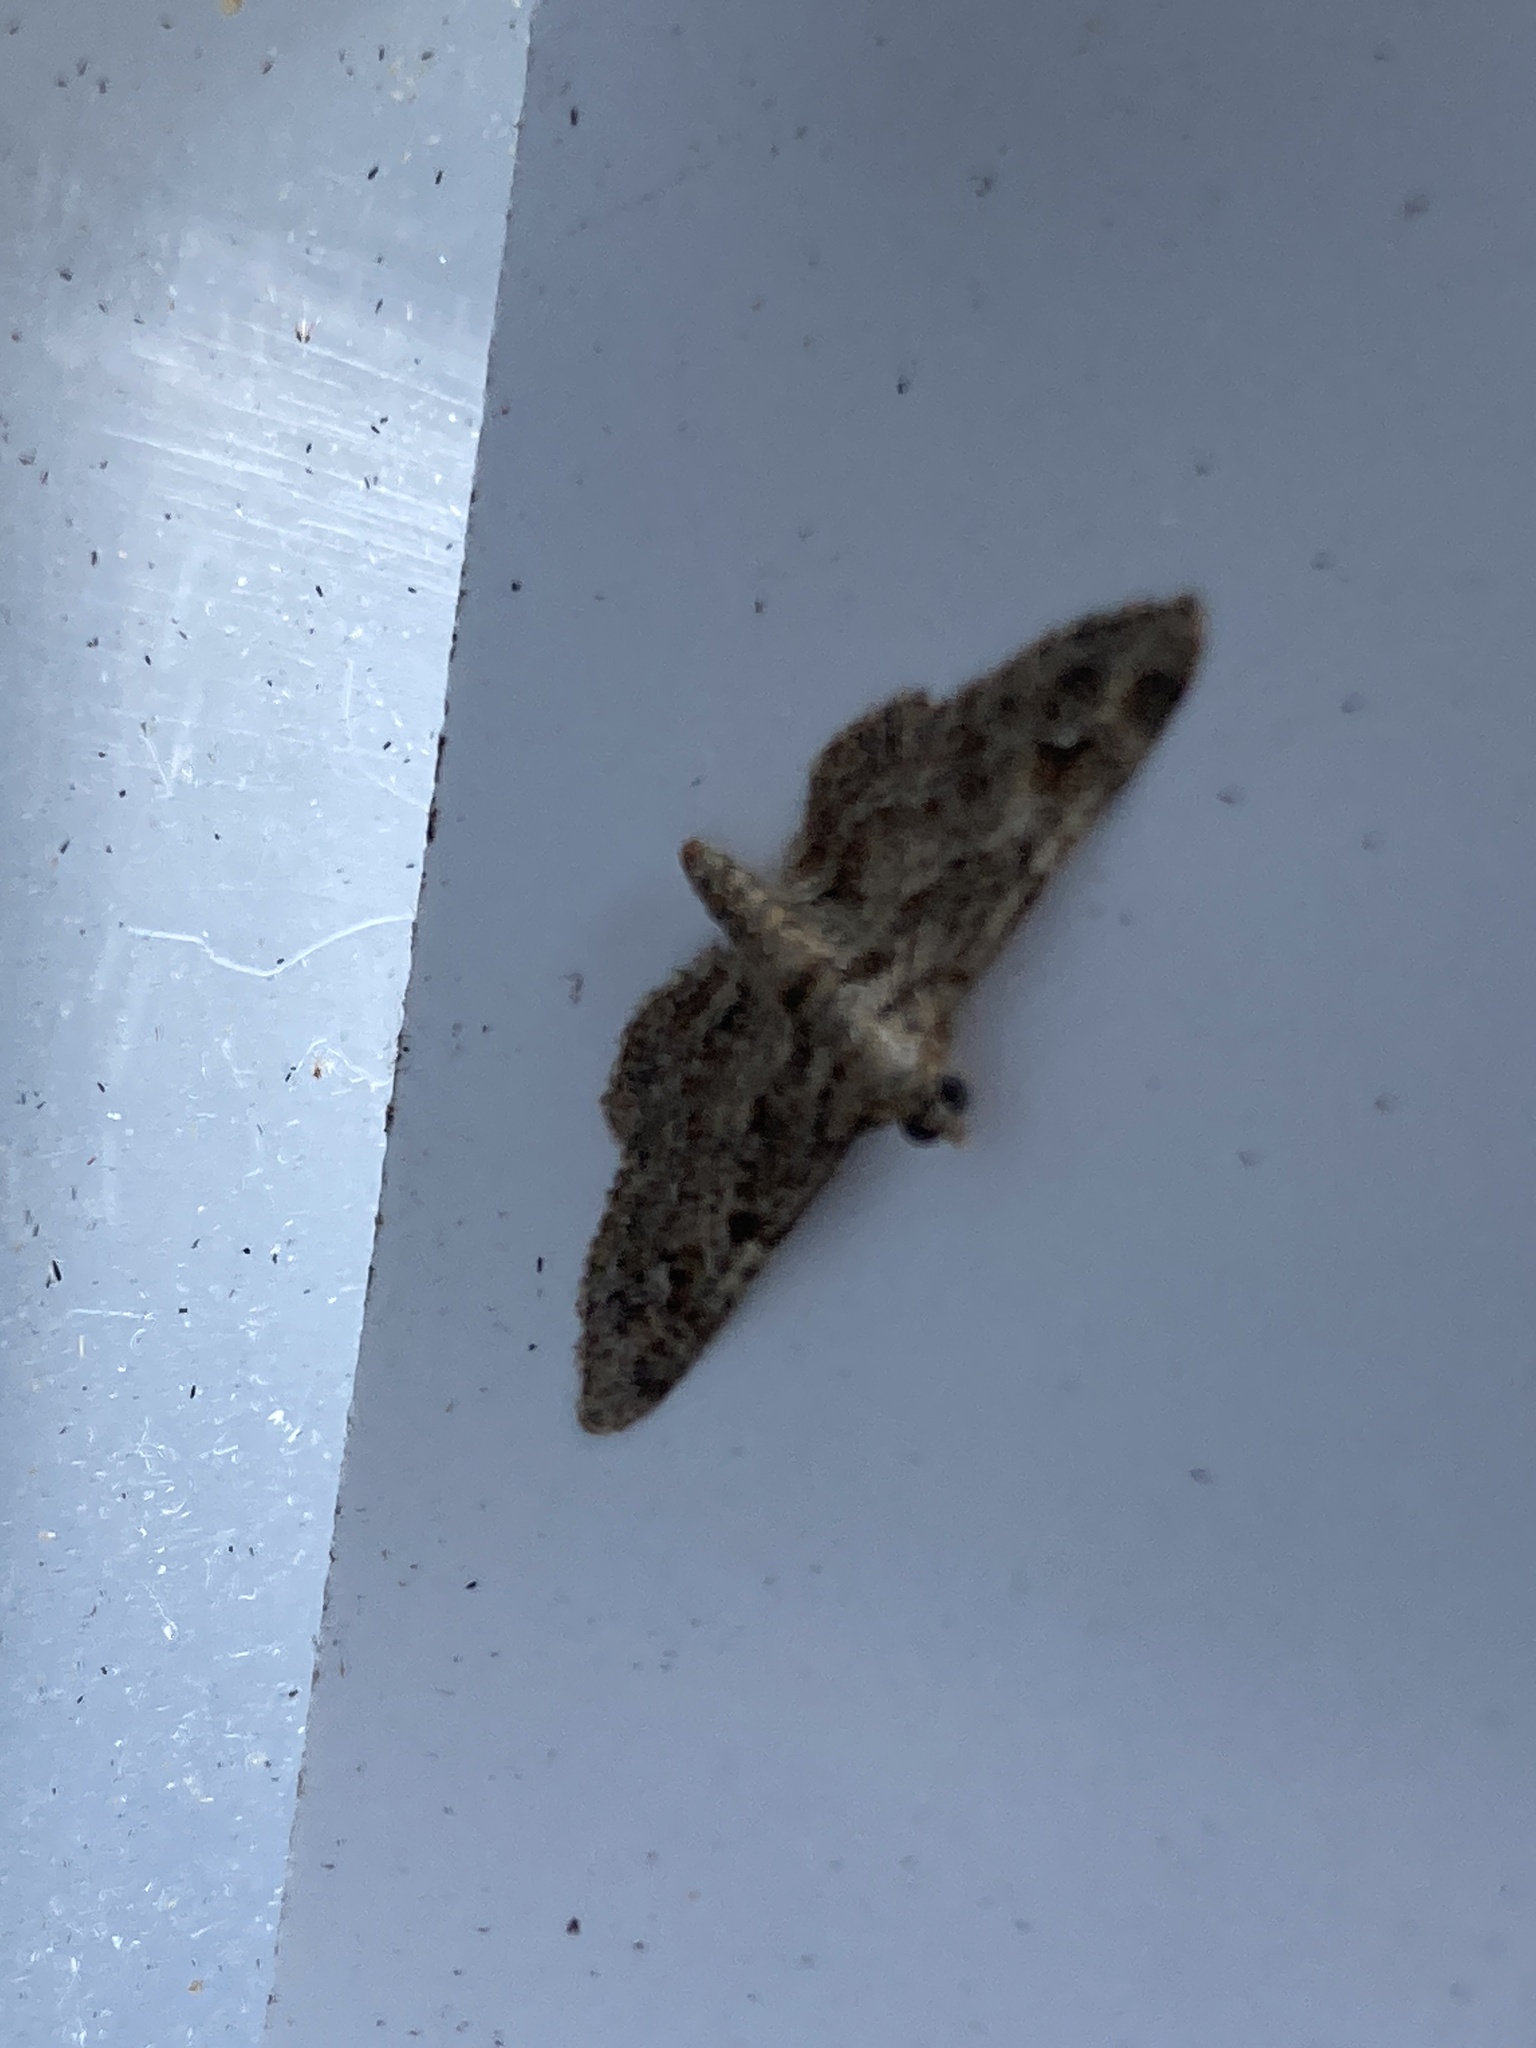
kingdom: Animalia
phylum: Arthropoda
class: Insecta
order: Lepidoptera
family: Geometridae
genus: Gymnoscelis
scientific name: Gymnoscelis rufifasciata
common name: Double-striped pug
